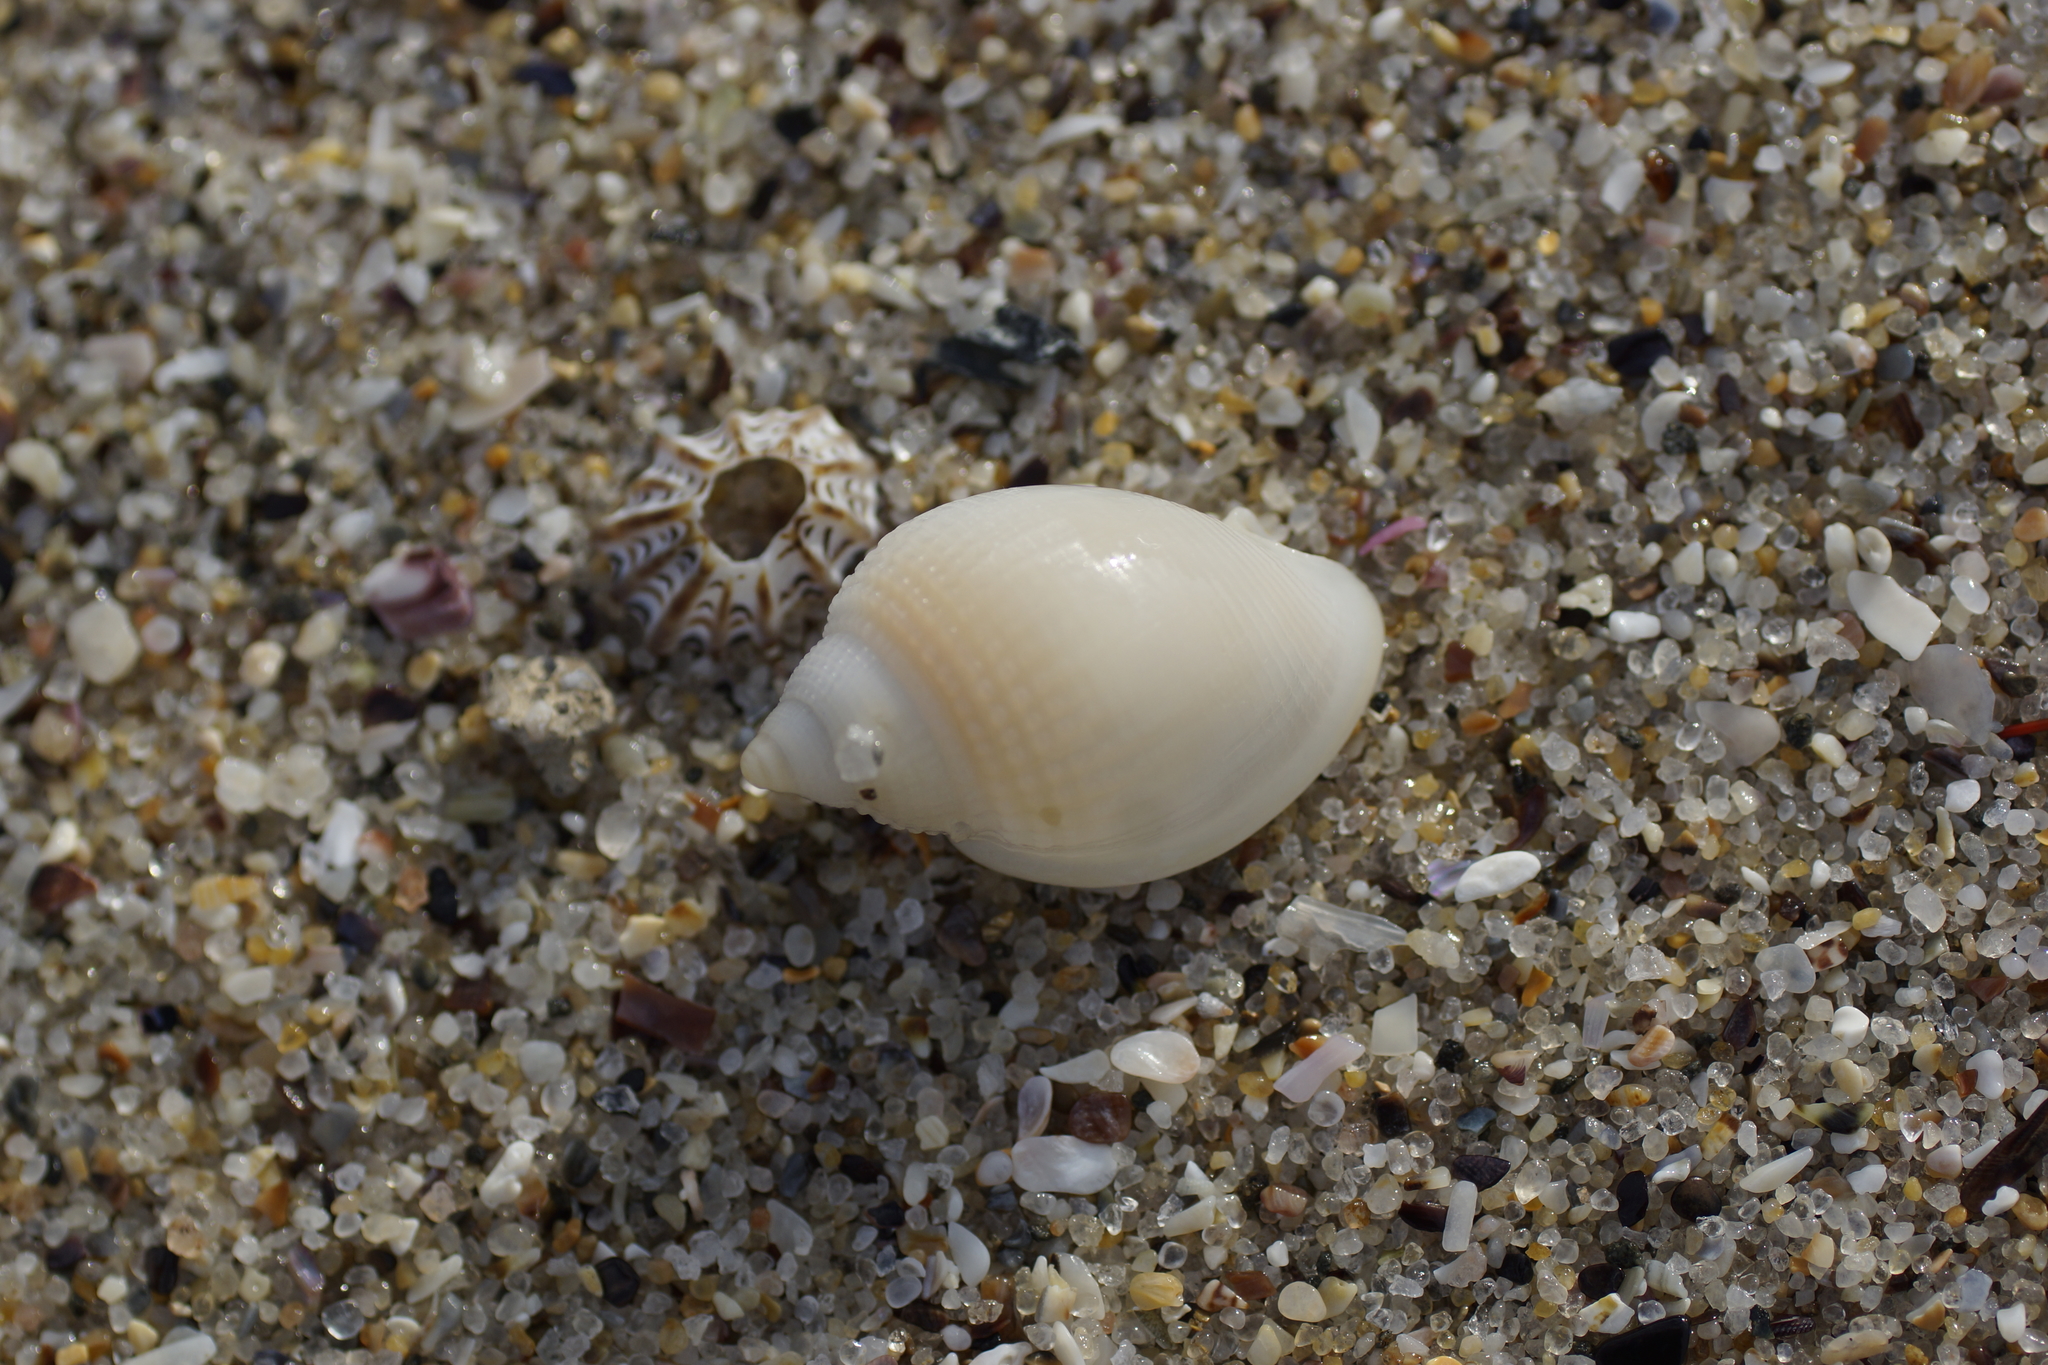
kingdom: Animalia
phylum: Mollusca
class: Gastropoda
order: Littorinimorpha
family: Cassidae
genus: Antephalium
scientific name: Antephalium
